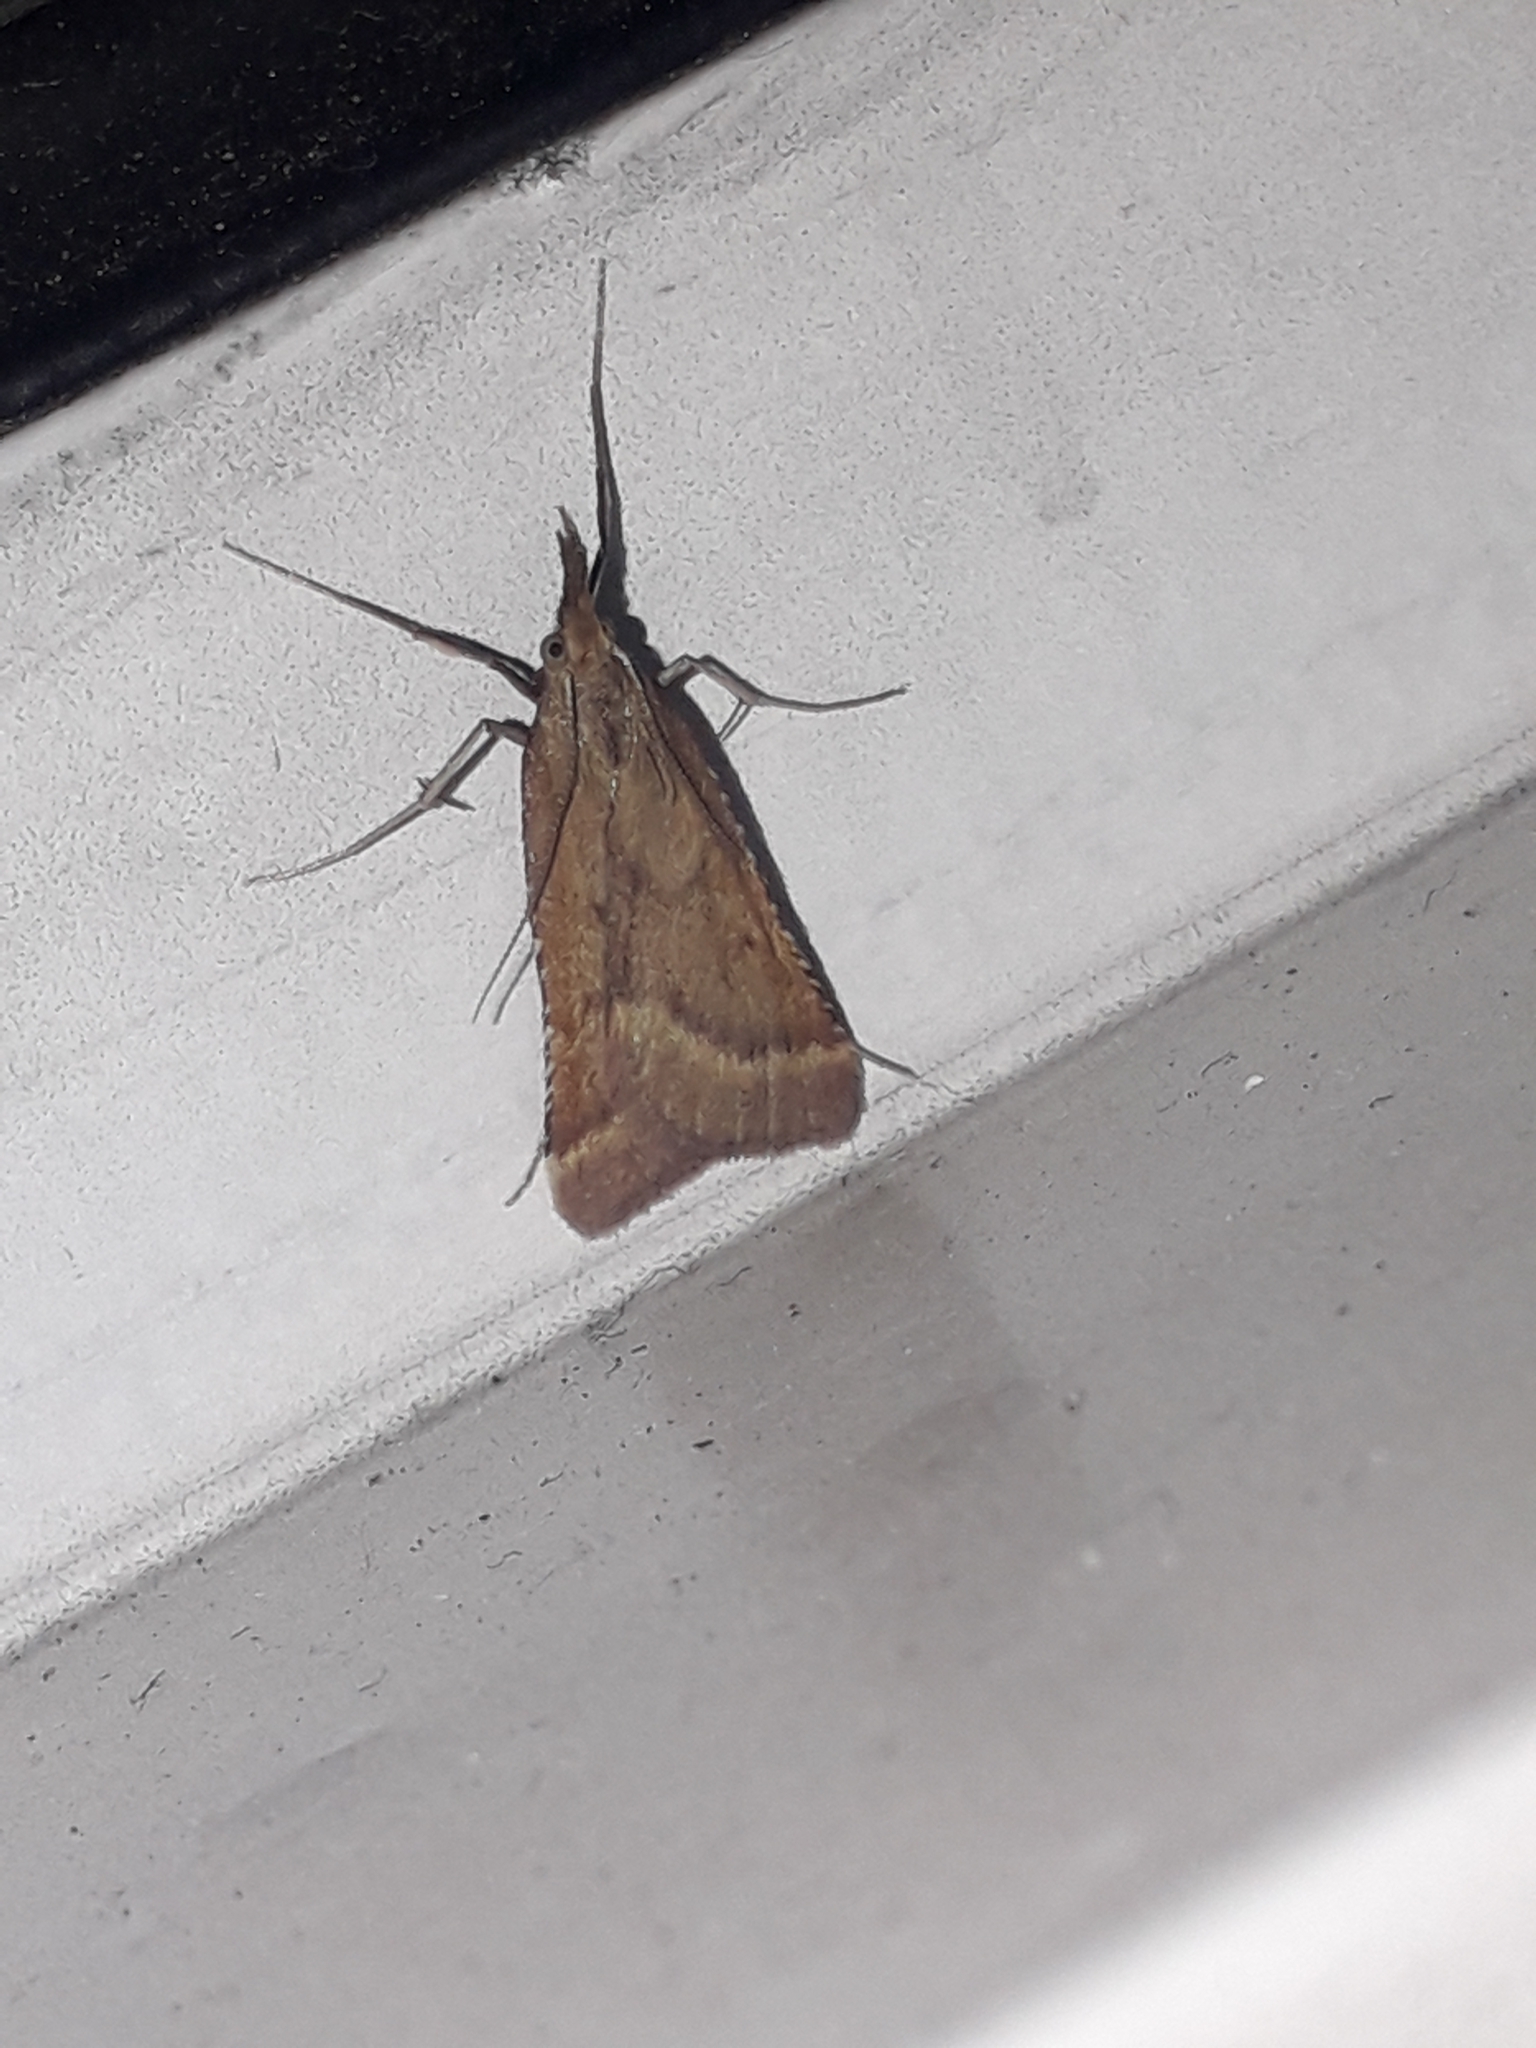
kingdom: Animalia
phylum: Arthropoda
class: Insecta
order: Lepidoptera
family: Pyralidae
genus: Synaphe
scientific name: Synaphe punctalis
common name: Long-legged tabby
